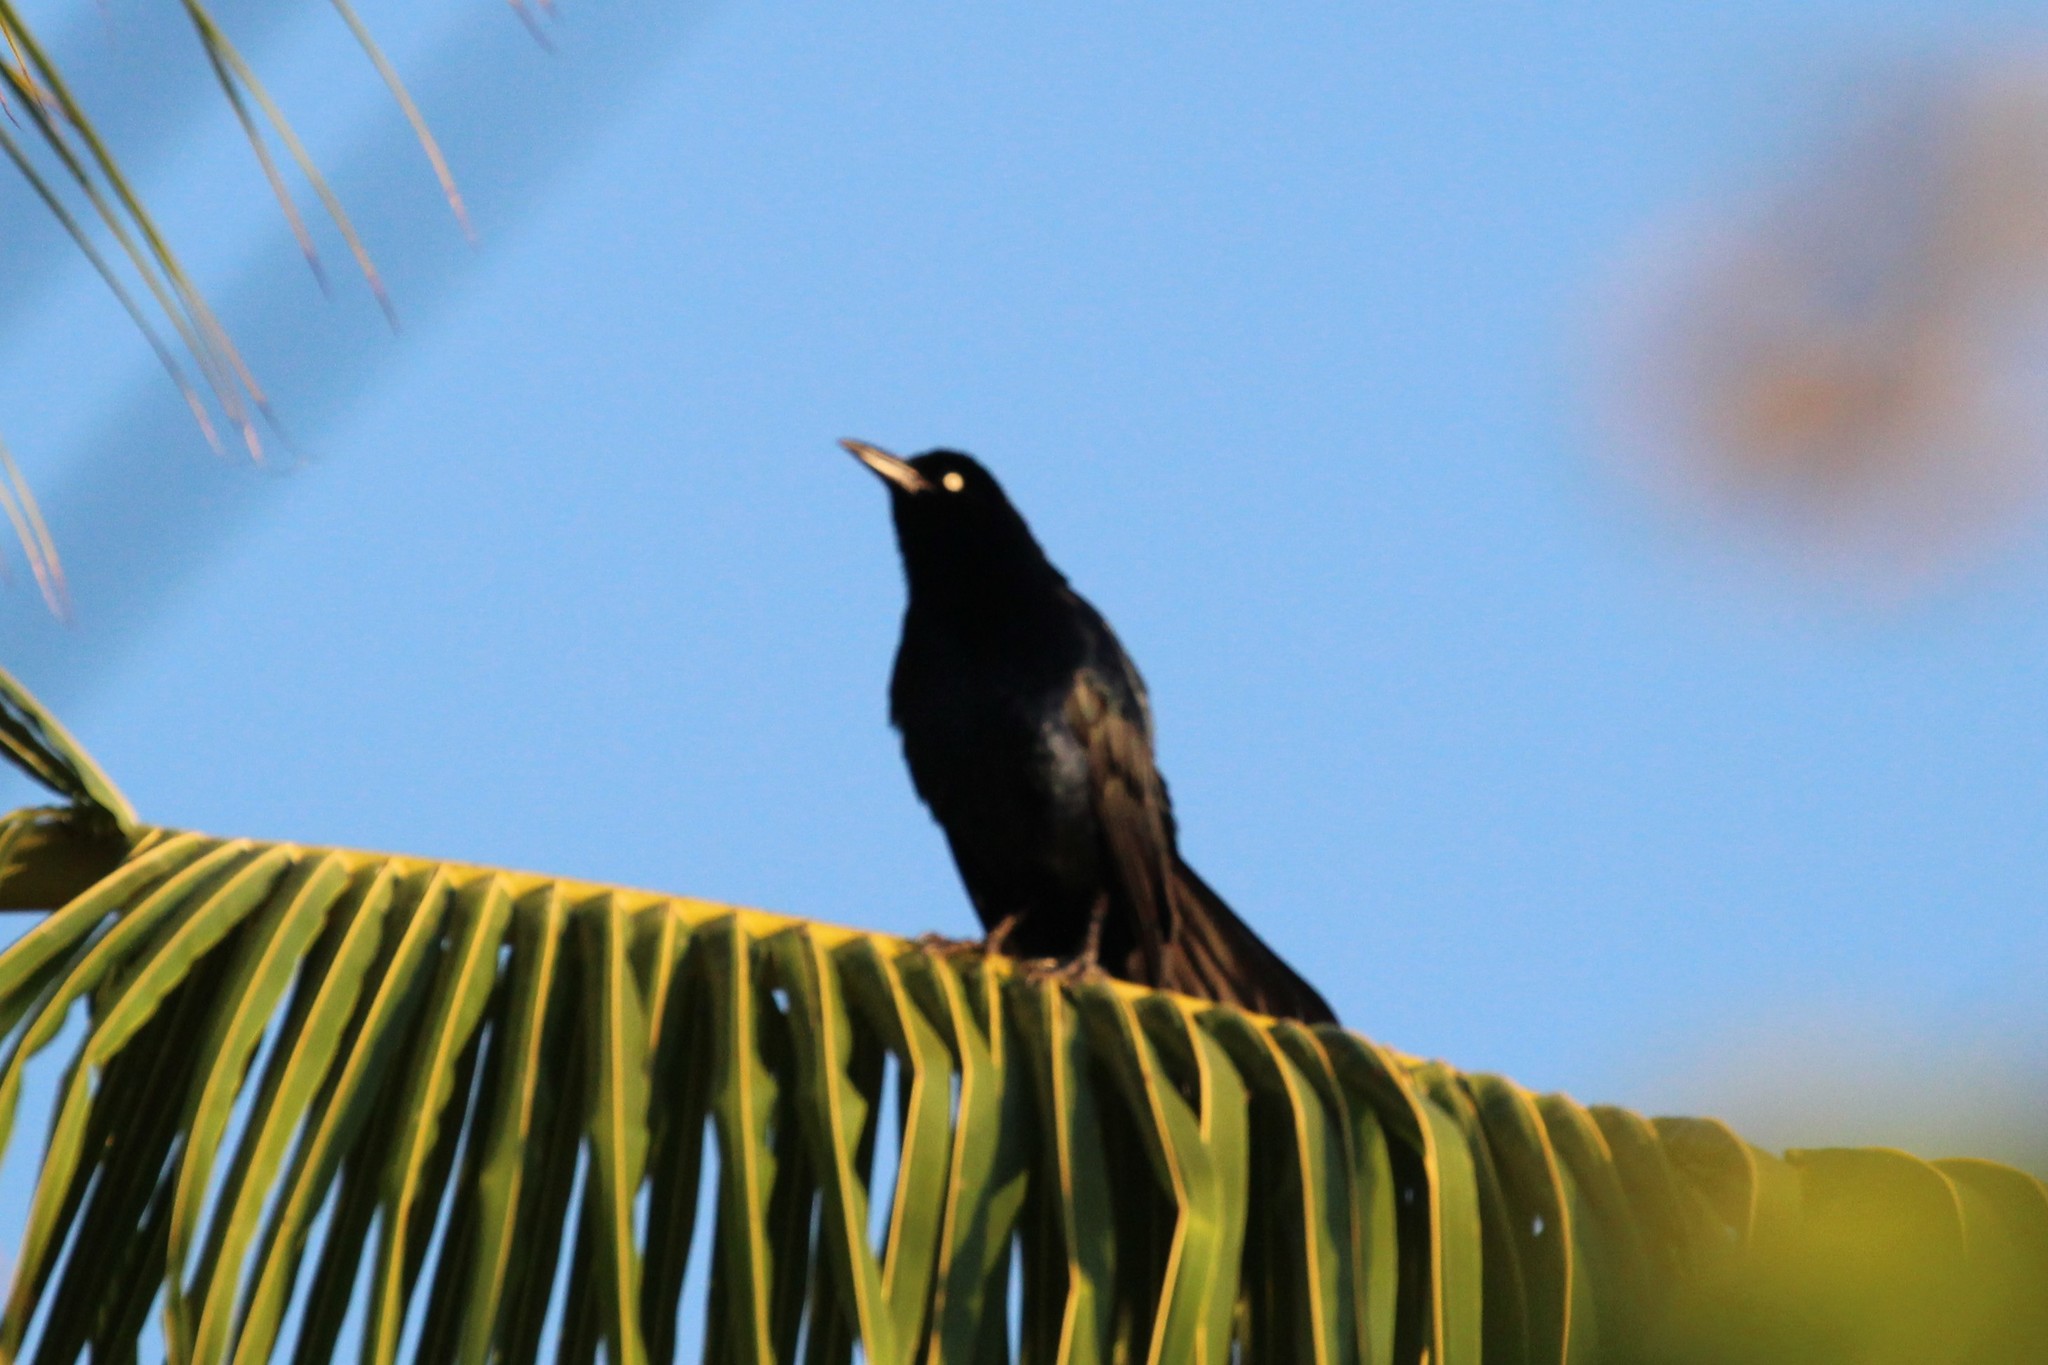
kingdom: Animalia
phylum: Chordata
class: Aves
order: Passeriformes
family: Icteridae
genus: Quiscalus
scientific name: Quiscalus mexicanus
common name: Great-tailed grackle
